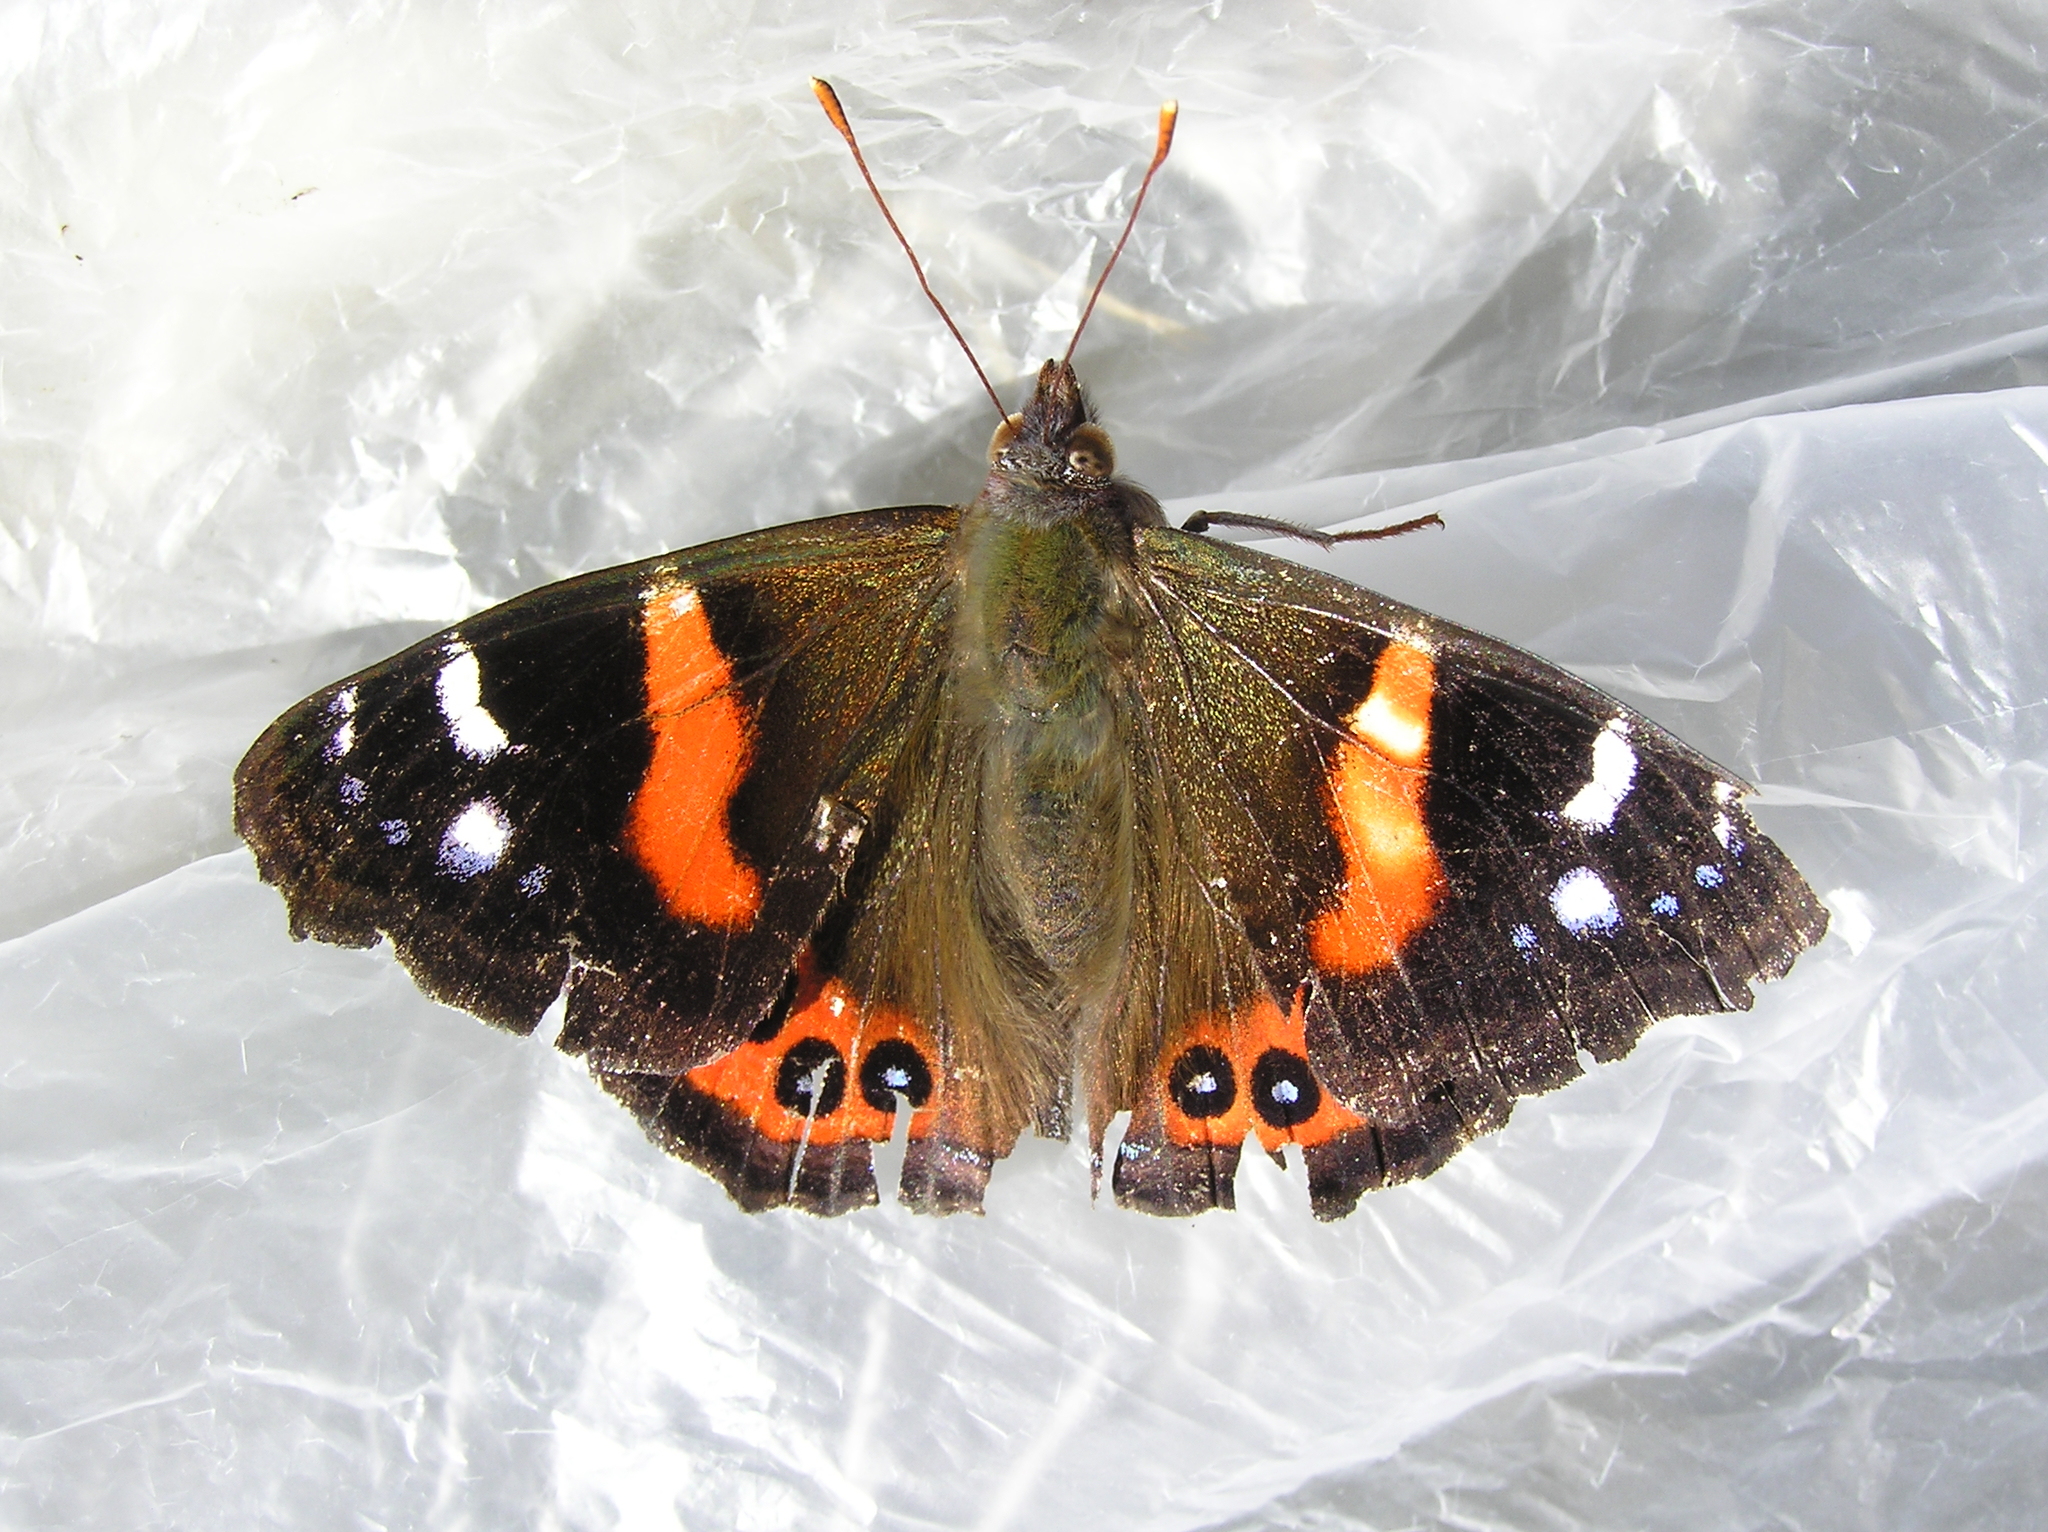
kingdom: Animalia
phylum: Arthropoda
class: Insecta
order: Lepidoptera
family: Nymphalidae
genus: Vanessa
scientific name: Vanessa gonerilla
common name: New zealand red admiral
